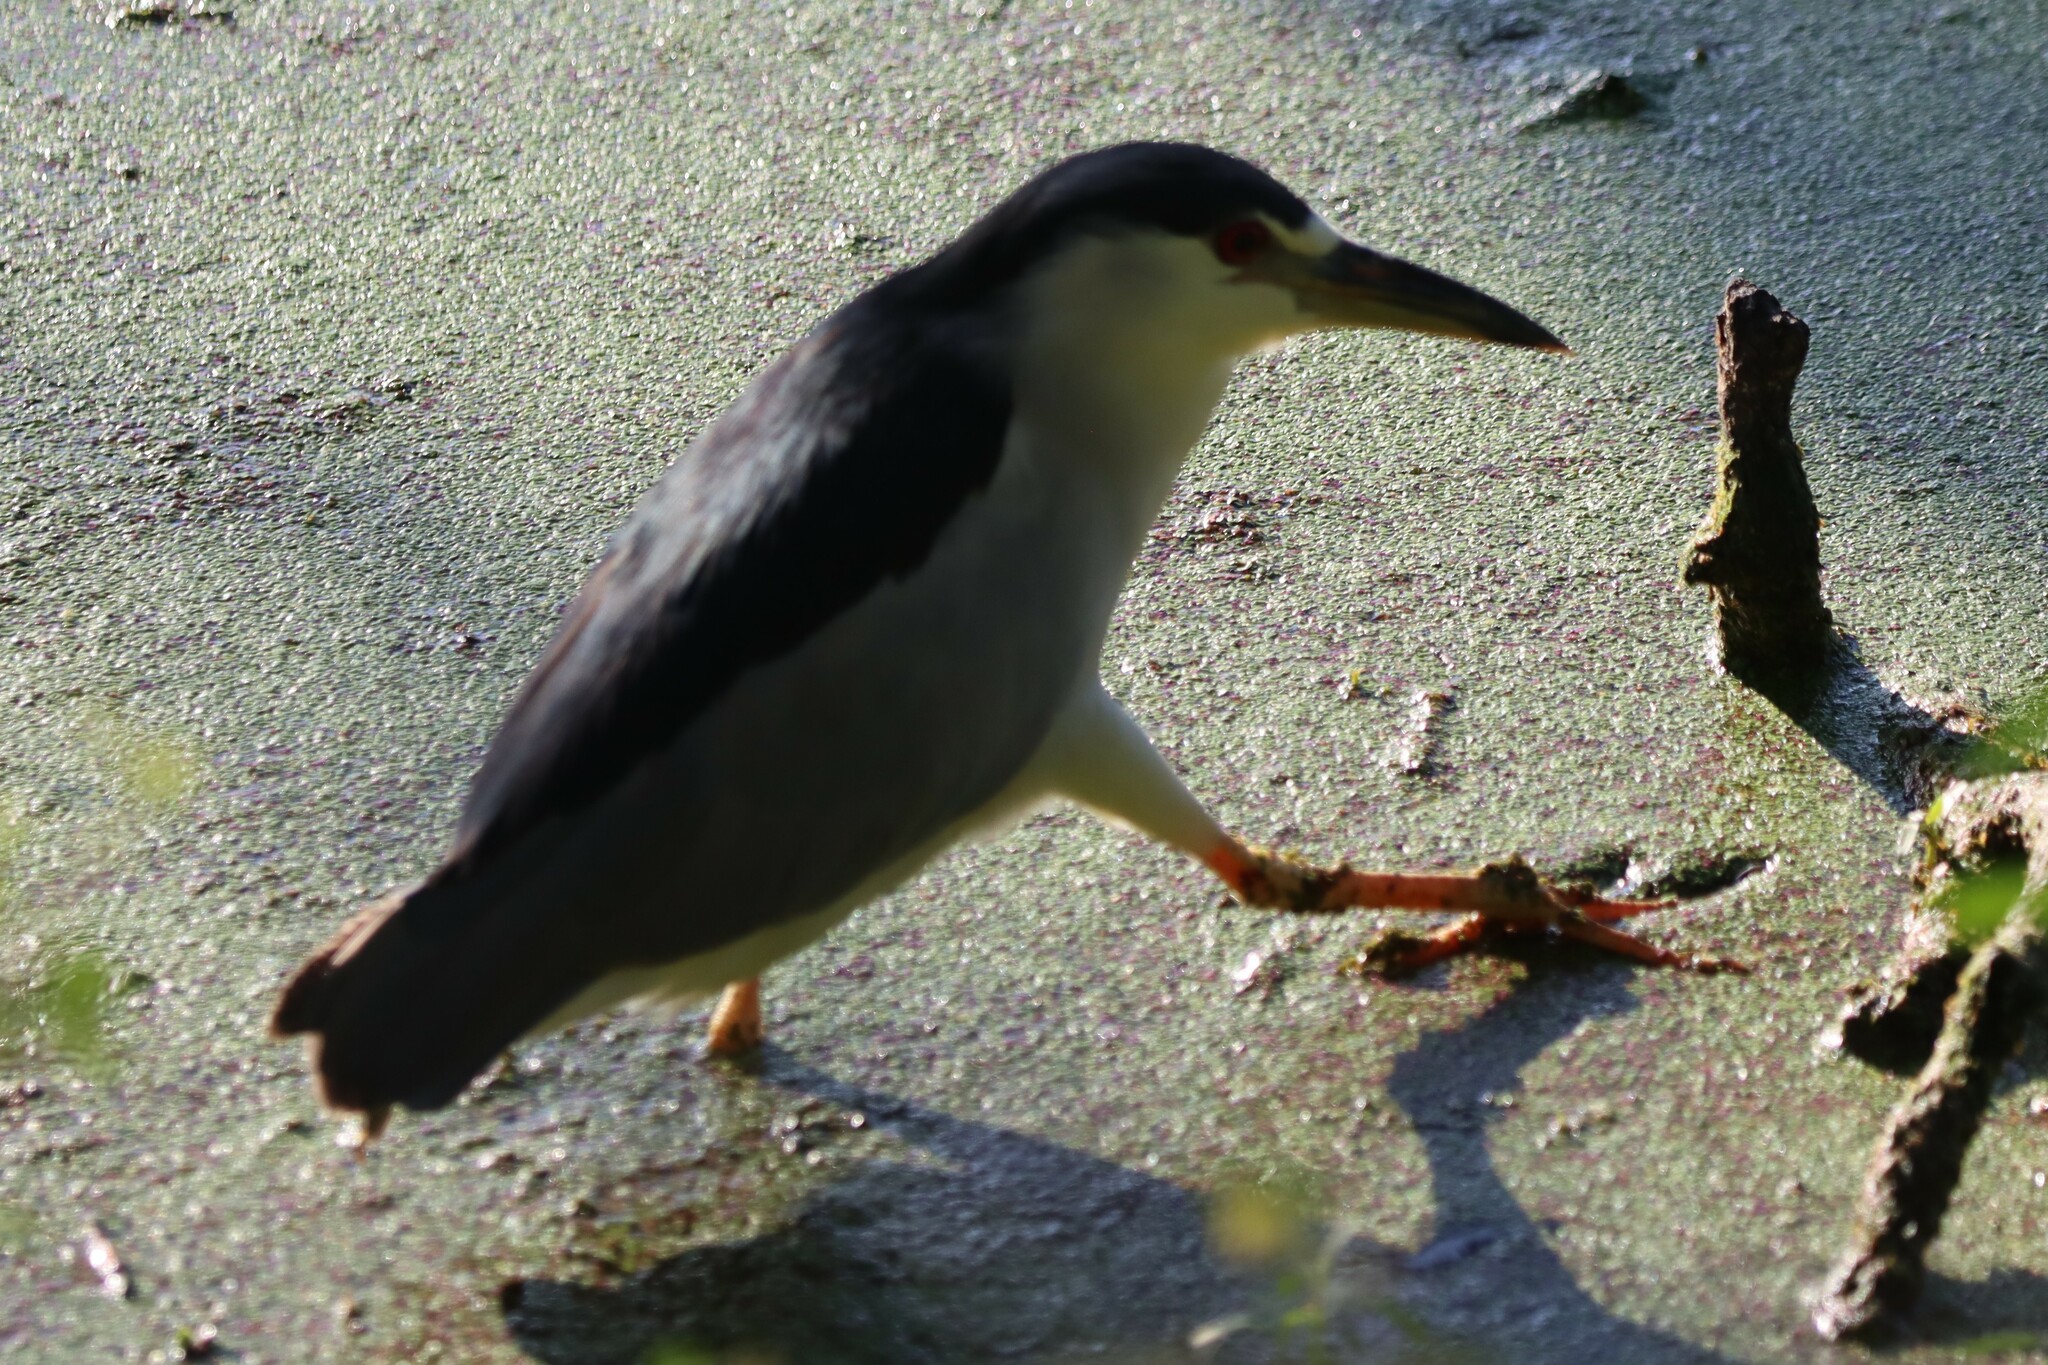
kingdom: Animalia
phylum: Chordata
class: Aves
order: Pelecaniformes
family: Ardeidae
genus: Nycticorax
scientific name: Nycticorax nycticorax
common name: Black-crowned night heron
